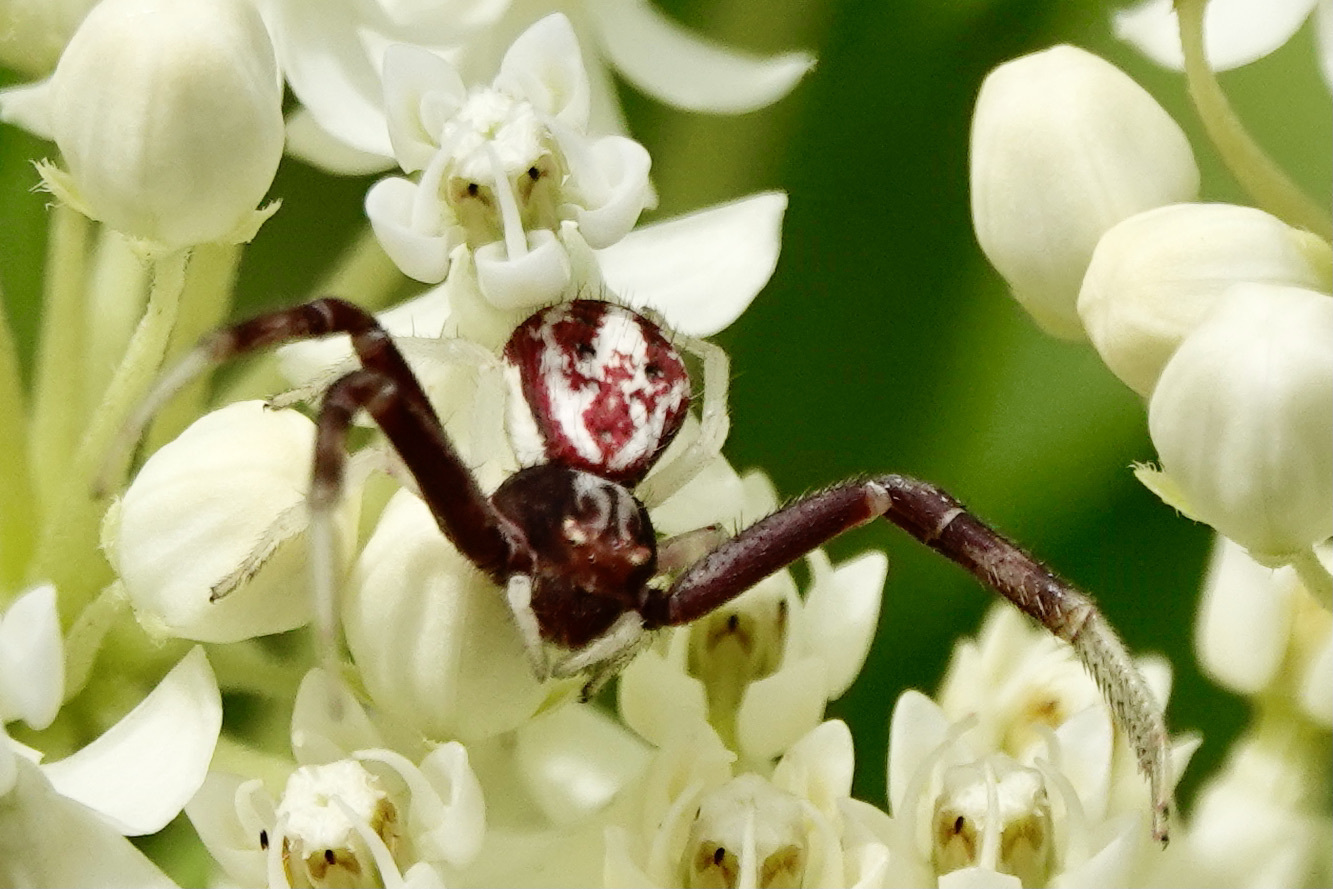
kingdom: Animalia
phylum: Arthropoda
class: Arachnida
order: Araneae
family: Thomisidae
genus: Mecaphesa
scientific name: Mecaphesa
